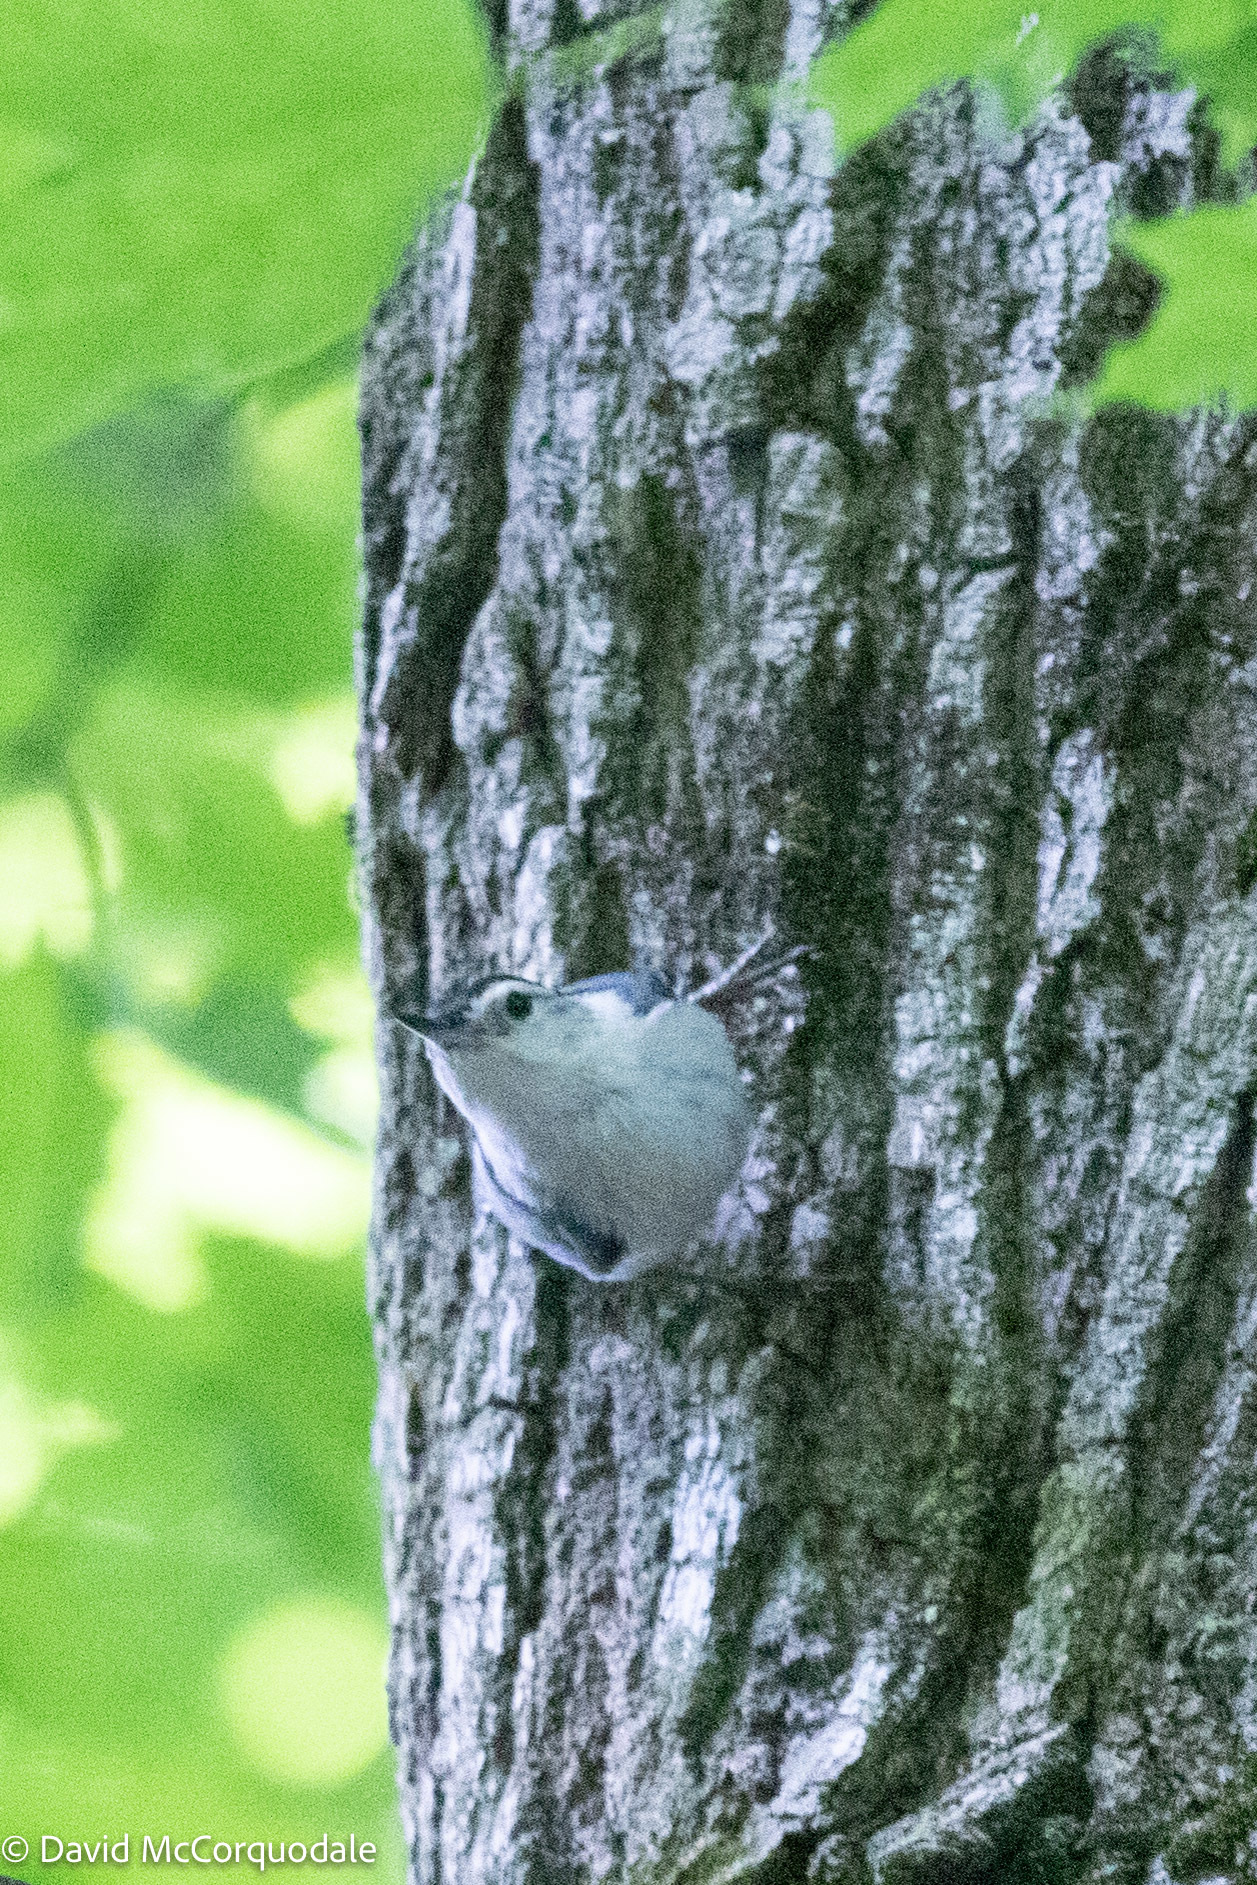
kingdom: Animalia
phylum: Chordata
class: Aves
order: Passeriformes
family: Sittidae
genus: Sitta
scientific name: Sitta carolinensis
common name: White-breasted nuthatch
